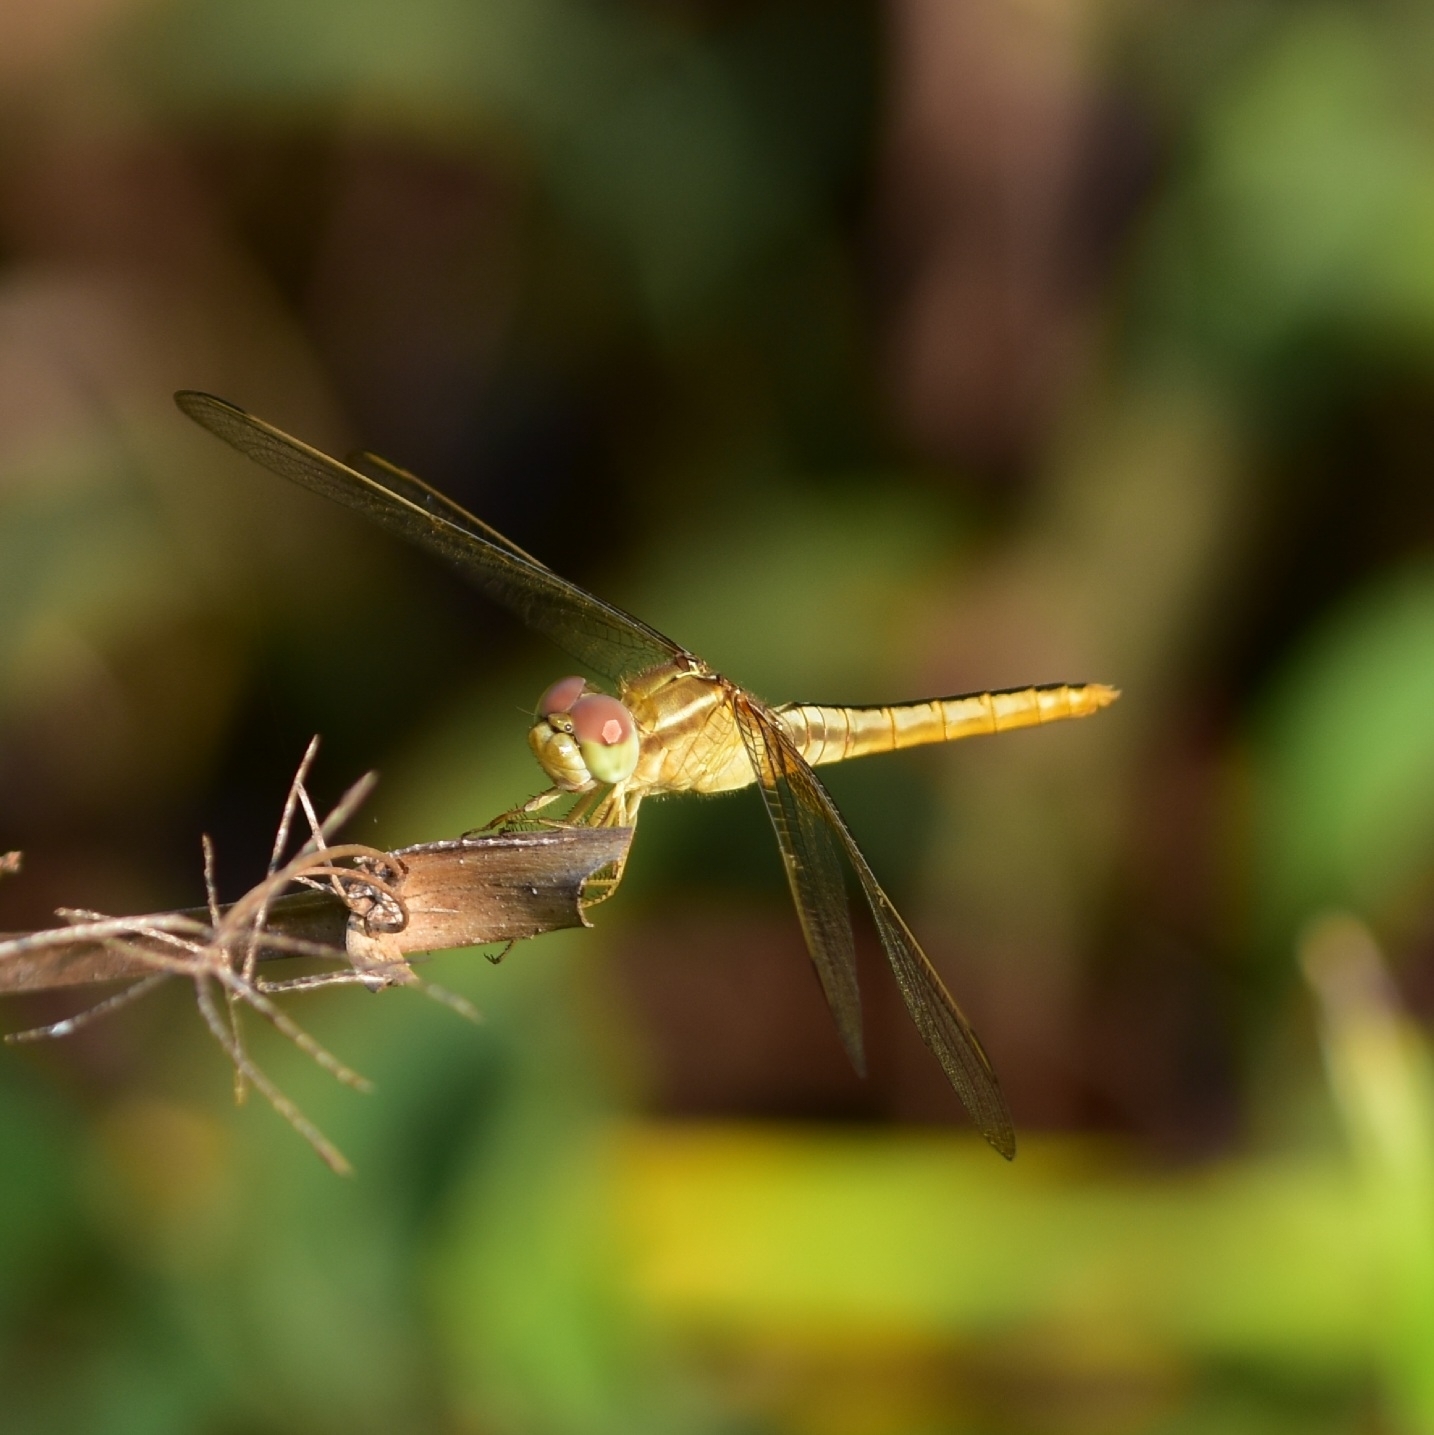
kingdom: Animalia
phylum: Arthropoda
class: Insecta
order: Odonata
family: Libellulidae
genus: Crocothemis
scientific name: Crocothemis servilia
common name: Scarlet skimmer
